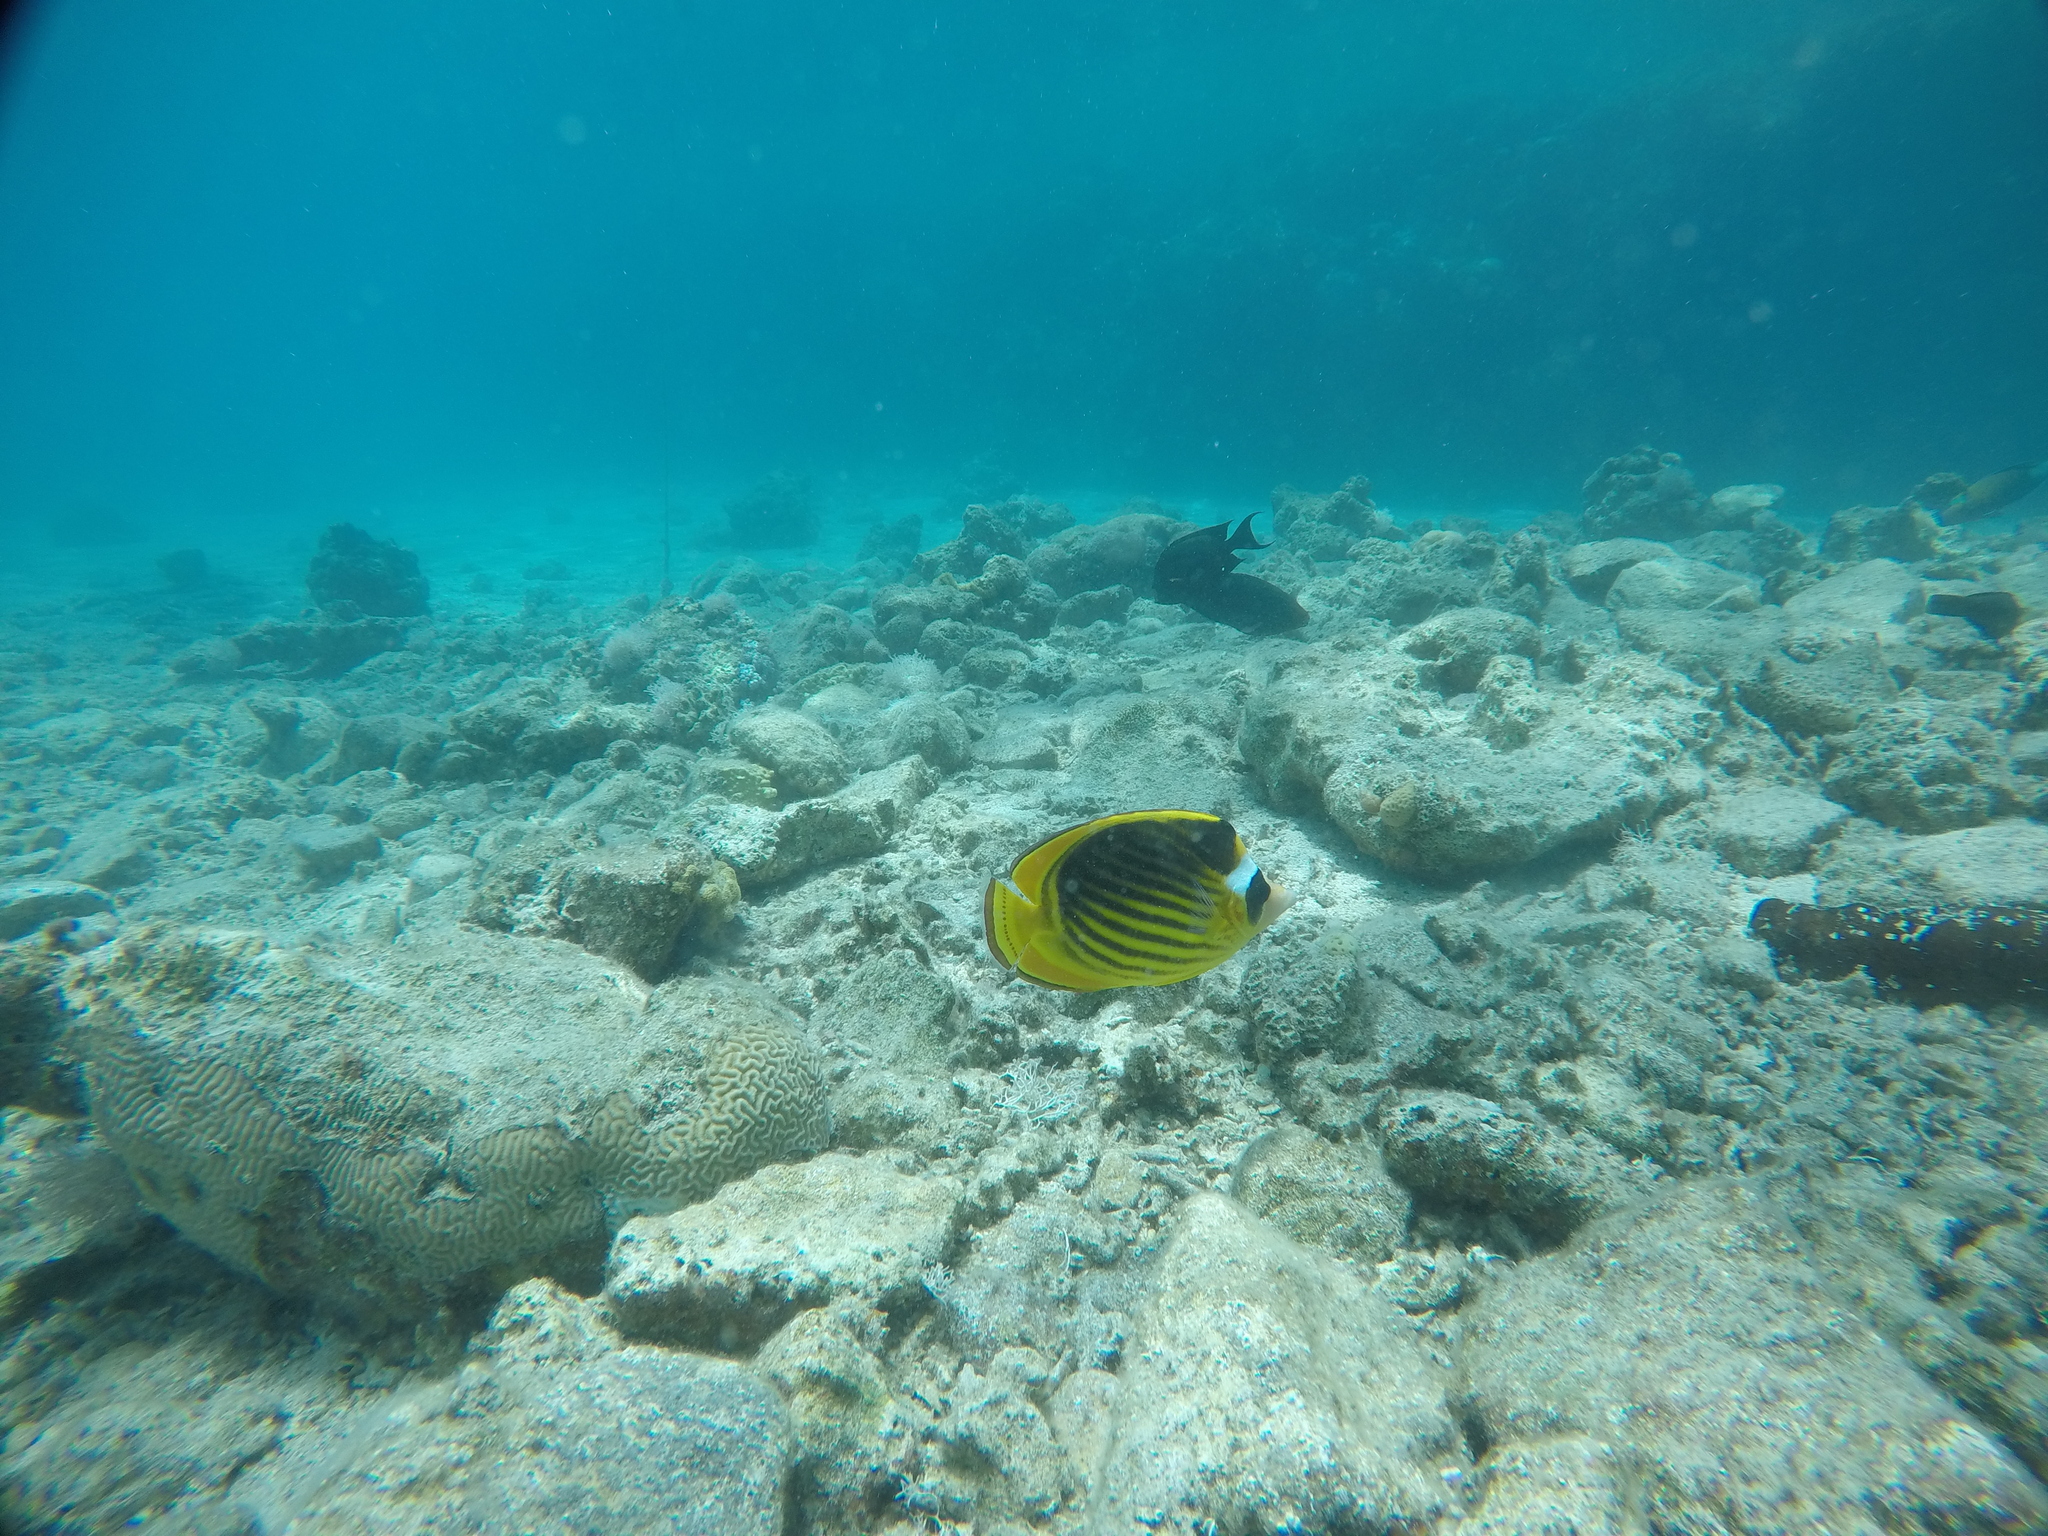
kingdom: Animalia
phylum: Chordata
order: Perciformes
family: Chaetodontidae
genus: Chaetodon
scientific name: Chaetodon fasciatus
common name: Diagonal butterflyfish
